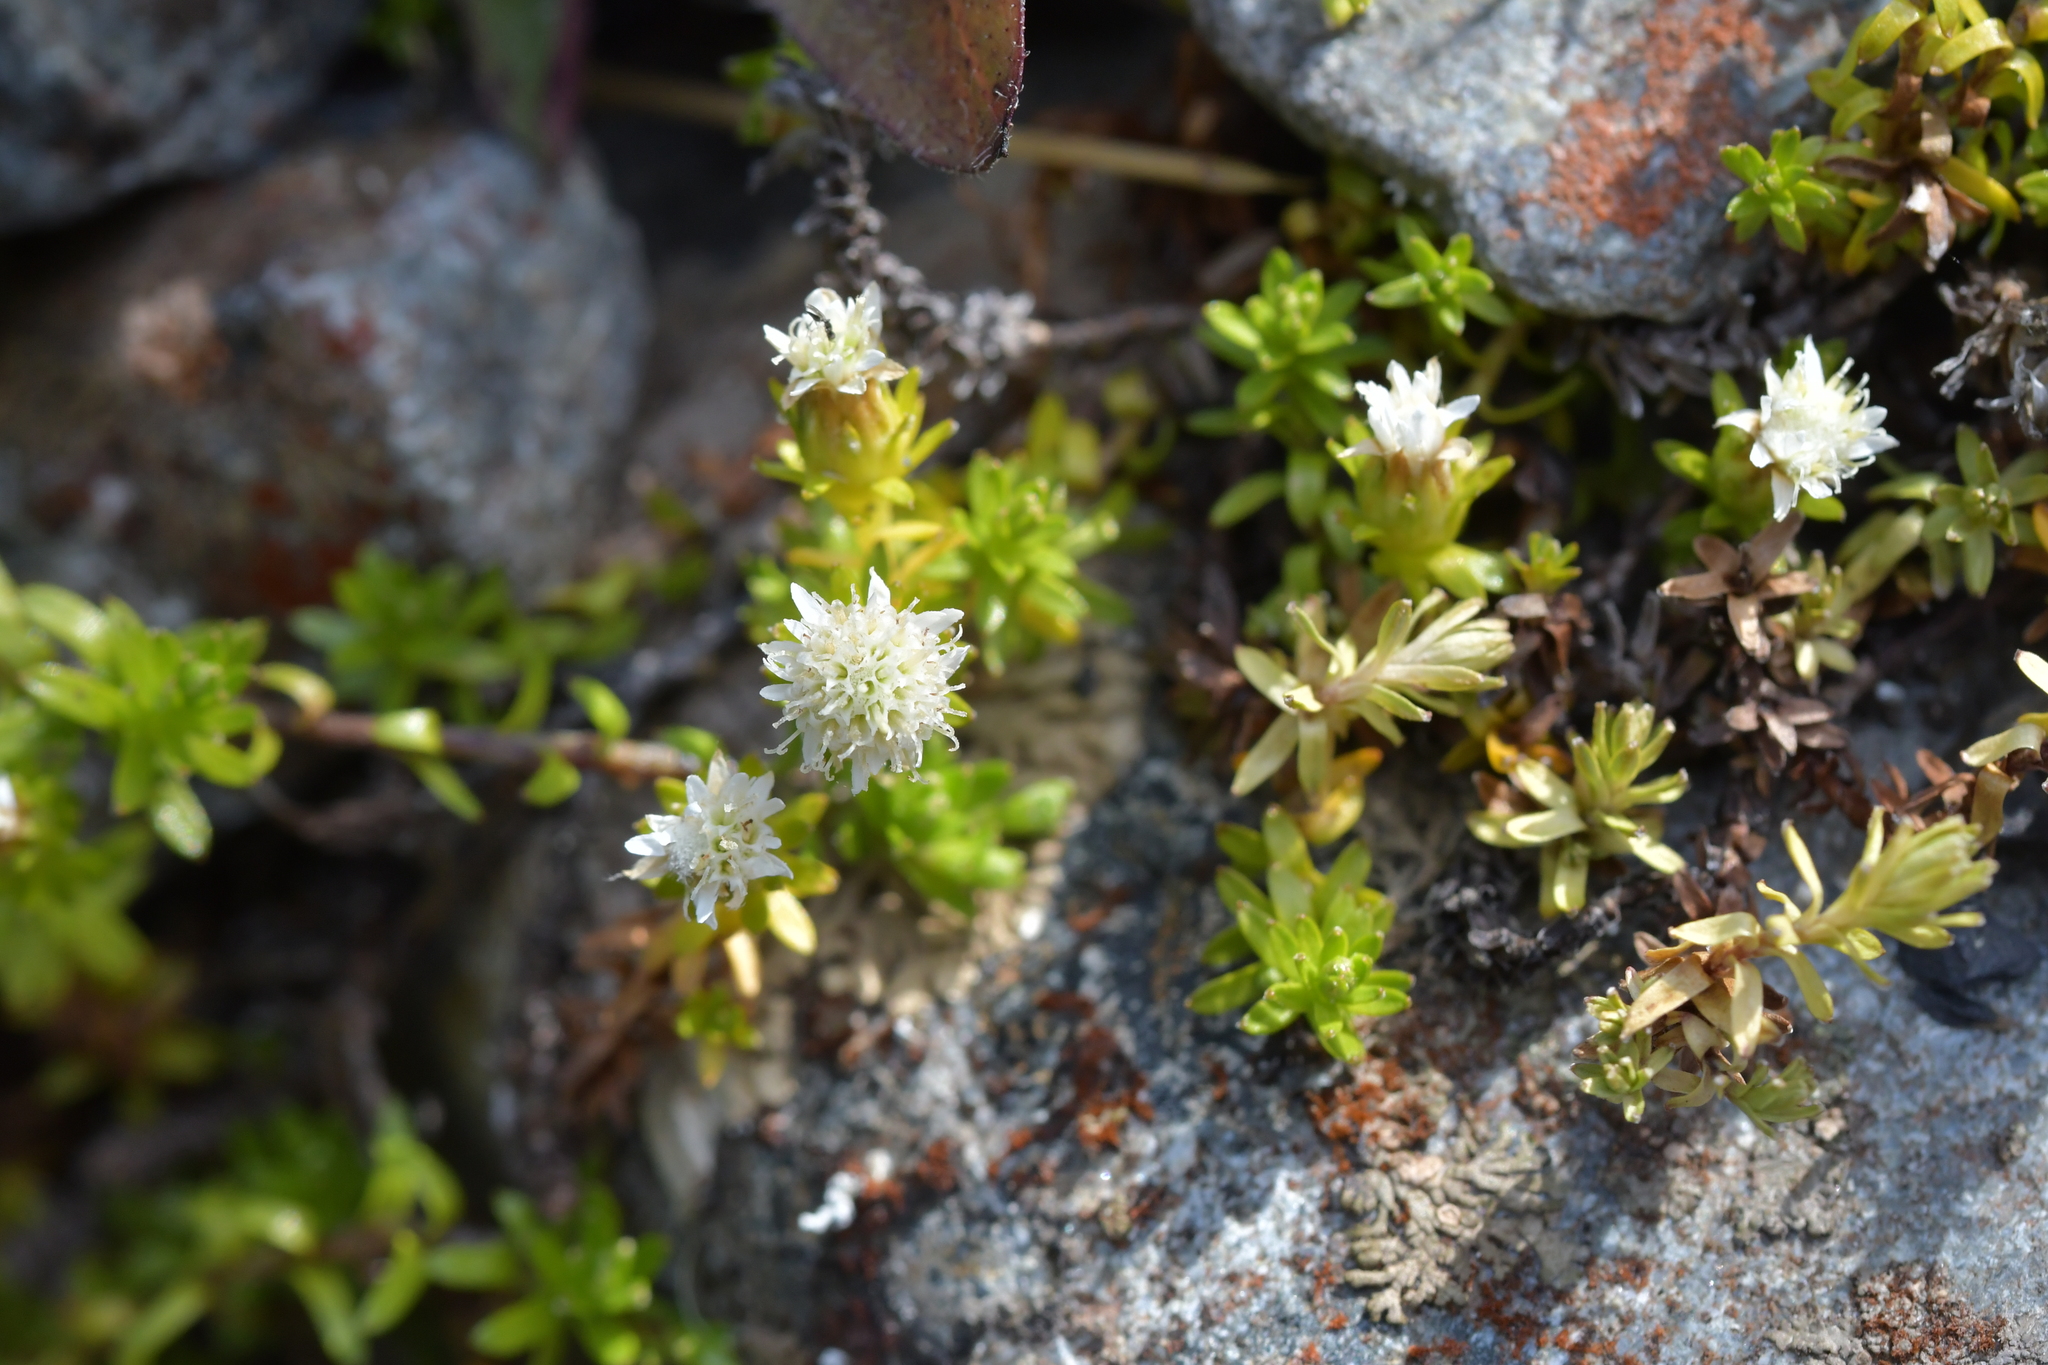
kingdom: Plantae
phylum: Tracheophyta
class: Magnoliopsida
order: Asterales
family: Asteraceae
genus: Raoulia
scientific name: Raoulia glabra
